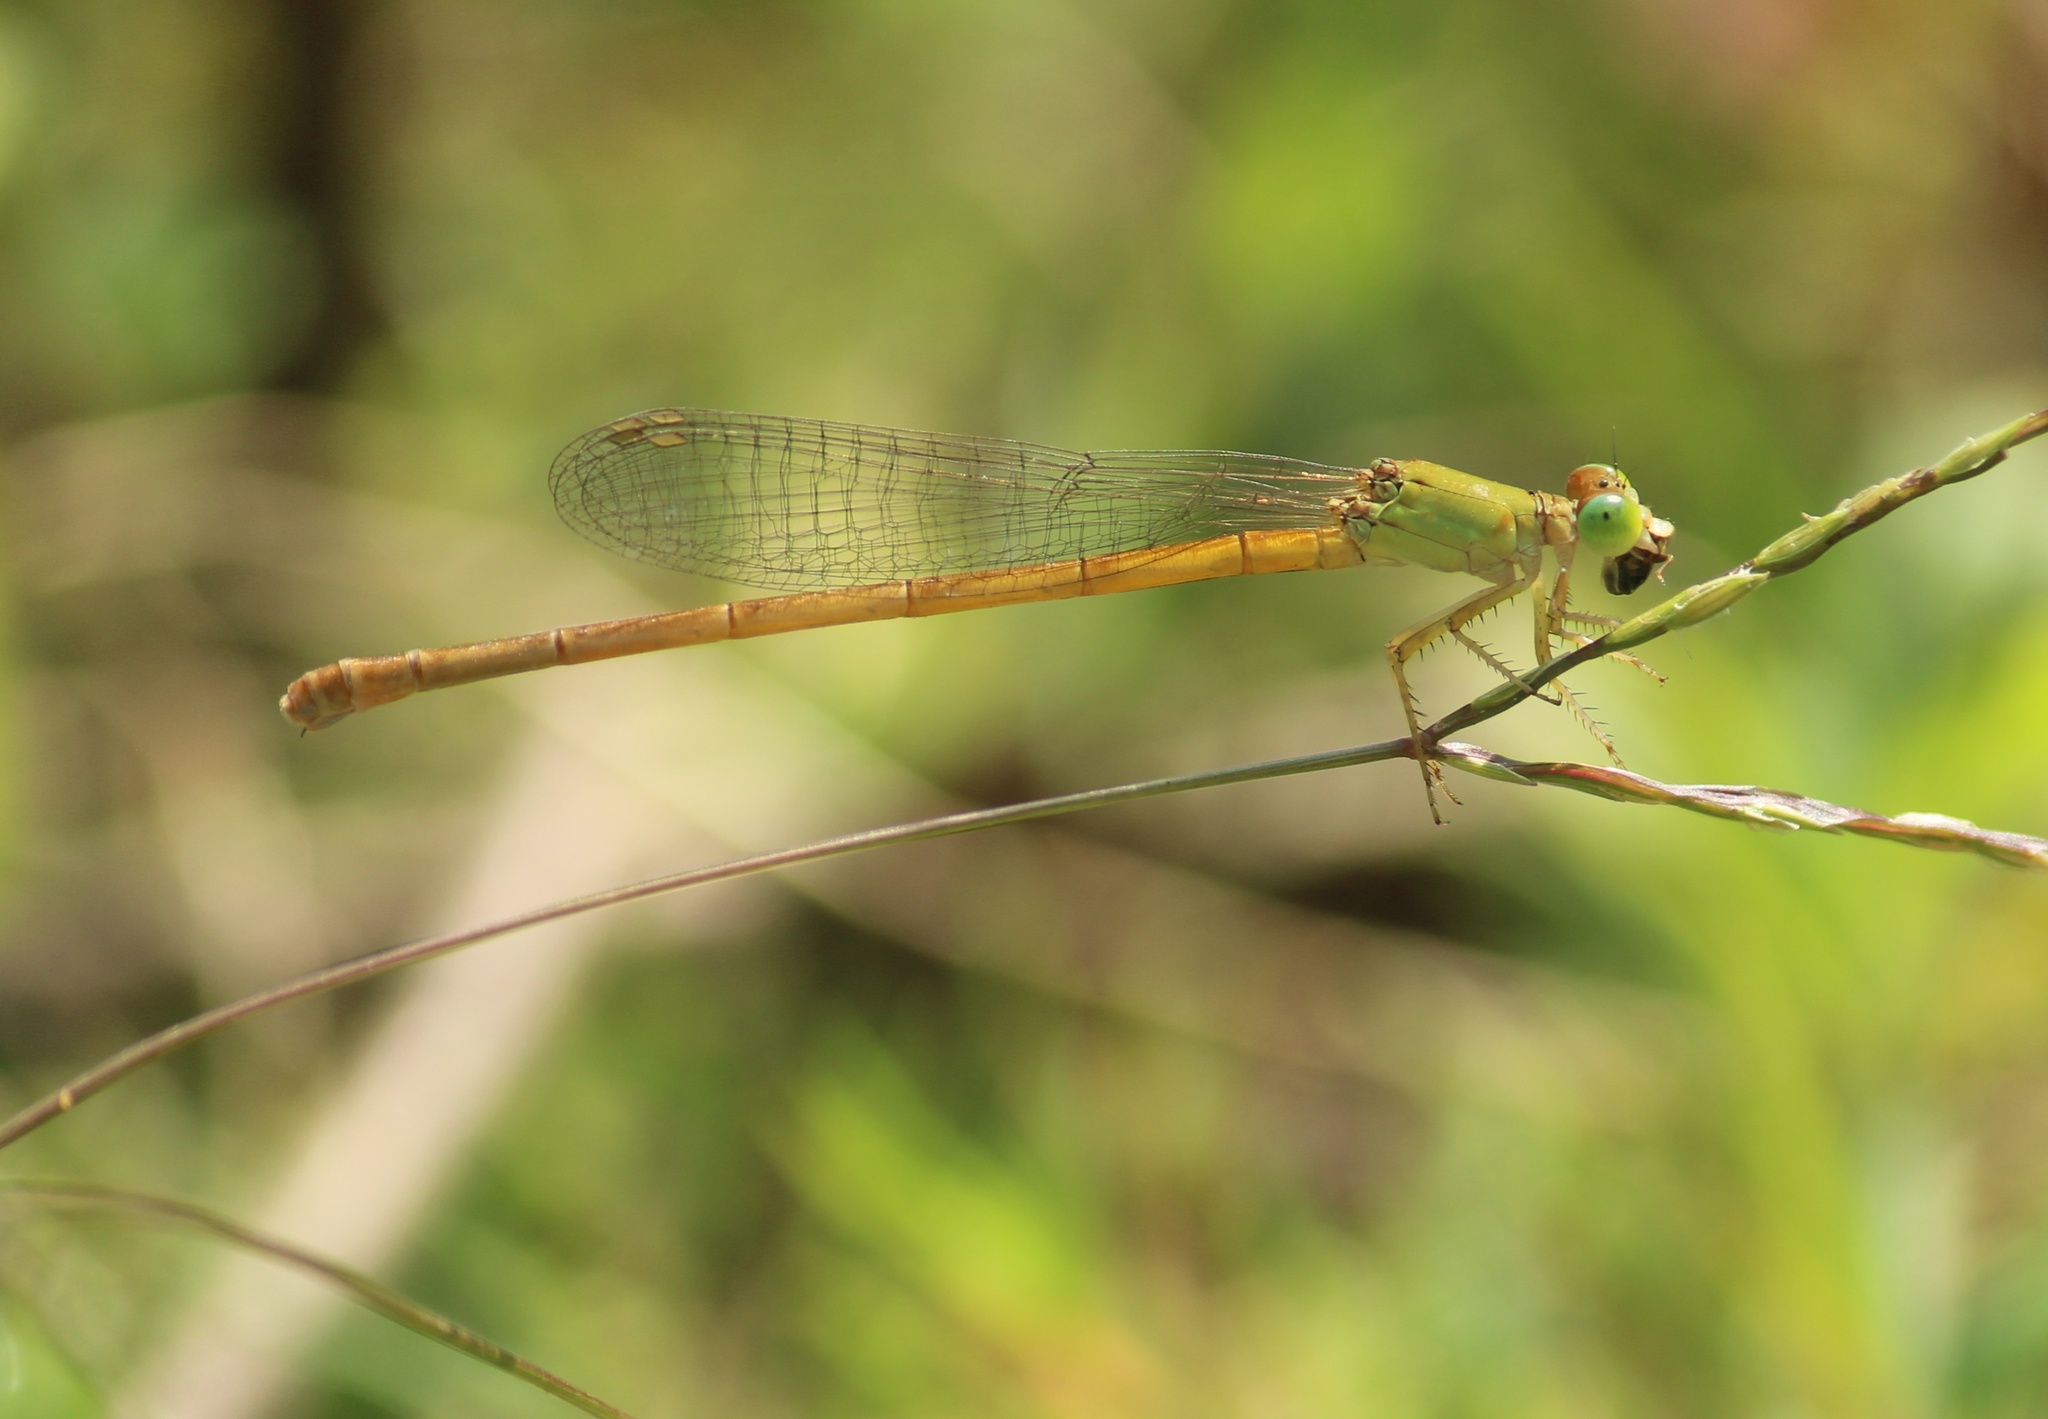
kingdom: Animalia
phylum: Arthropoda
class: Insecta
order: Odonata
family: Coenagrionidae
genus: Ceriagrion
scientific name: Ceriagrion coromandelianum
